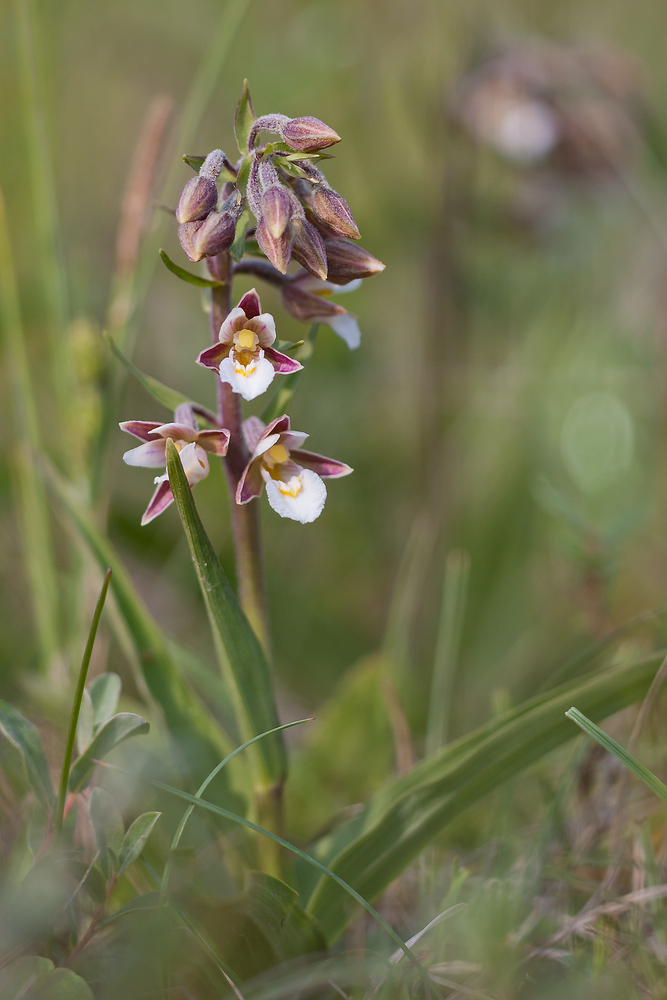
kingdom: Plantae
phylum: Tracheophyta
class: Liliopsida
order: Asparagales
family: Orchidaceae
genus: Epipactis
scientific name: Epipactis palustris
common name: Marsh helleborine
